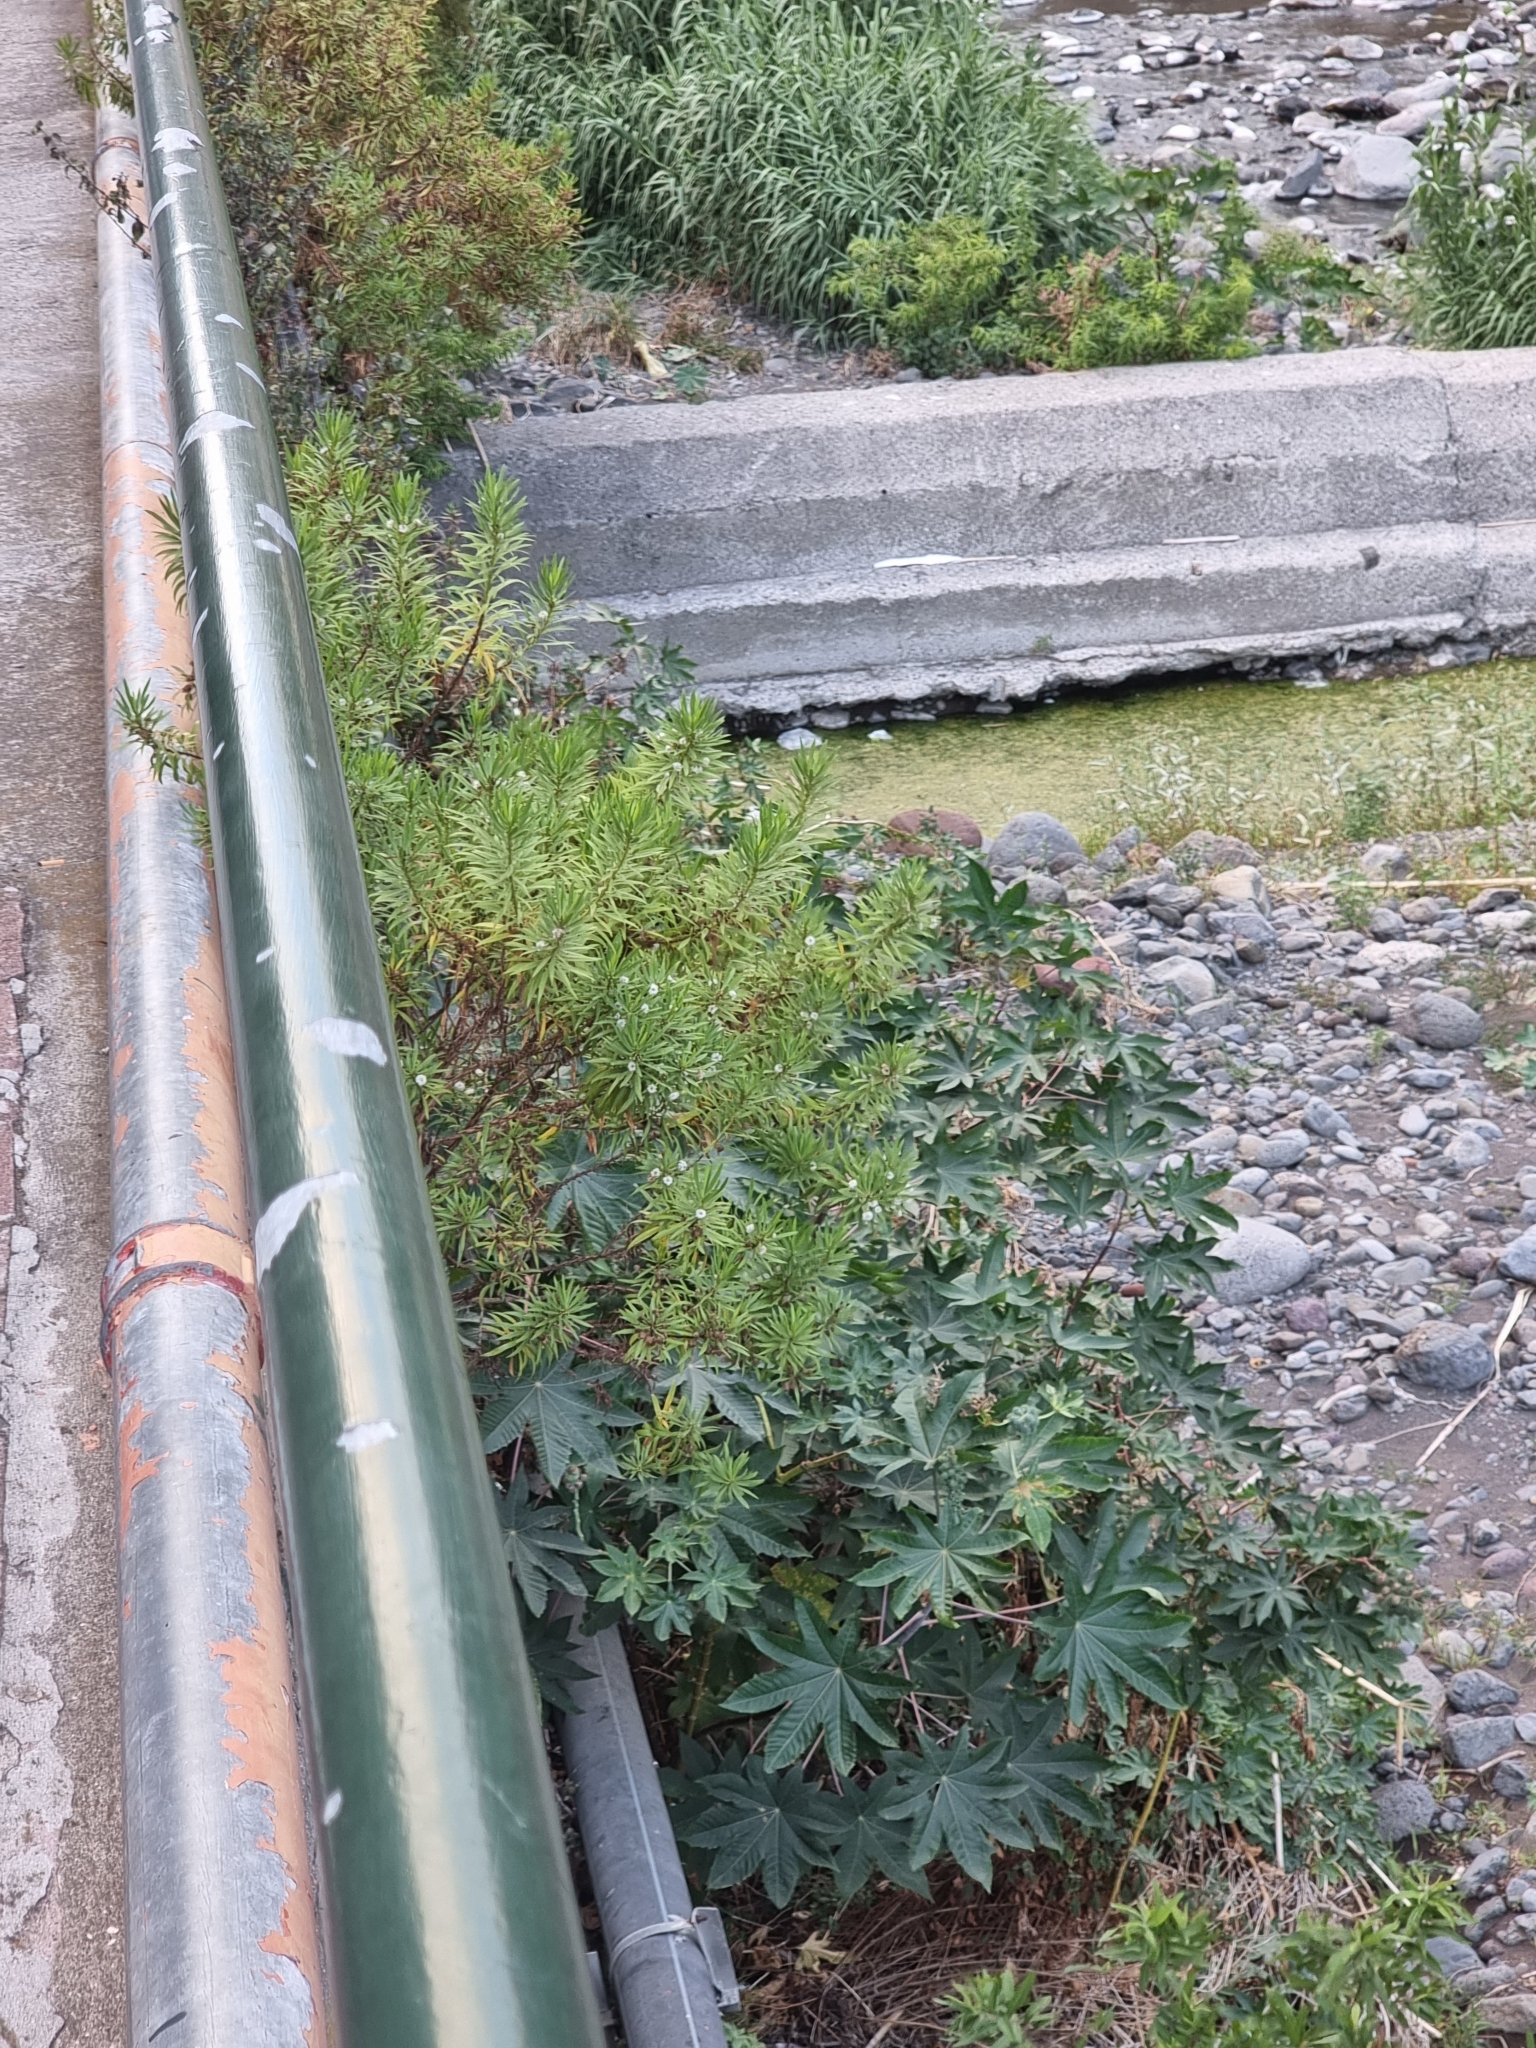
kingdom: Plantae
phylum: Tracheophyta
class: Magnoliopsida
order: Lamiales
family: Plantaginaceae
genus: Globularia
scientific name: Globularia salicina
